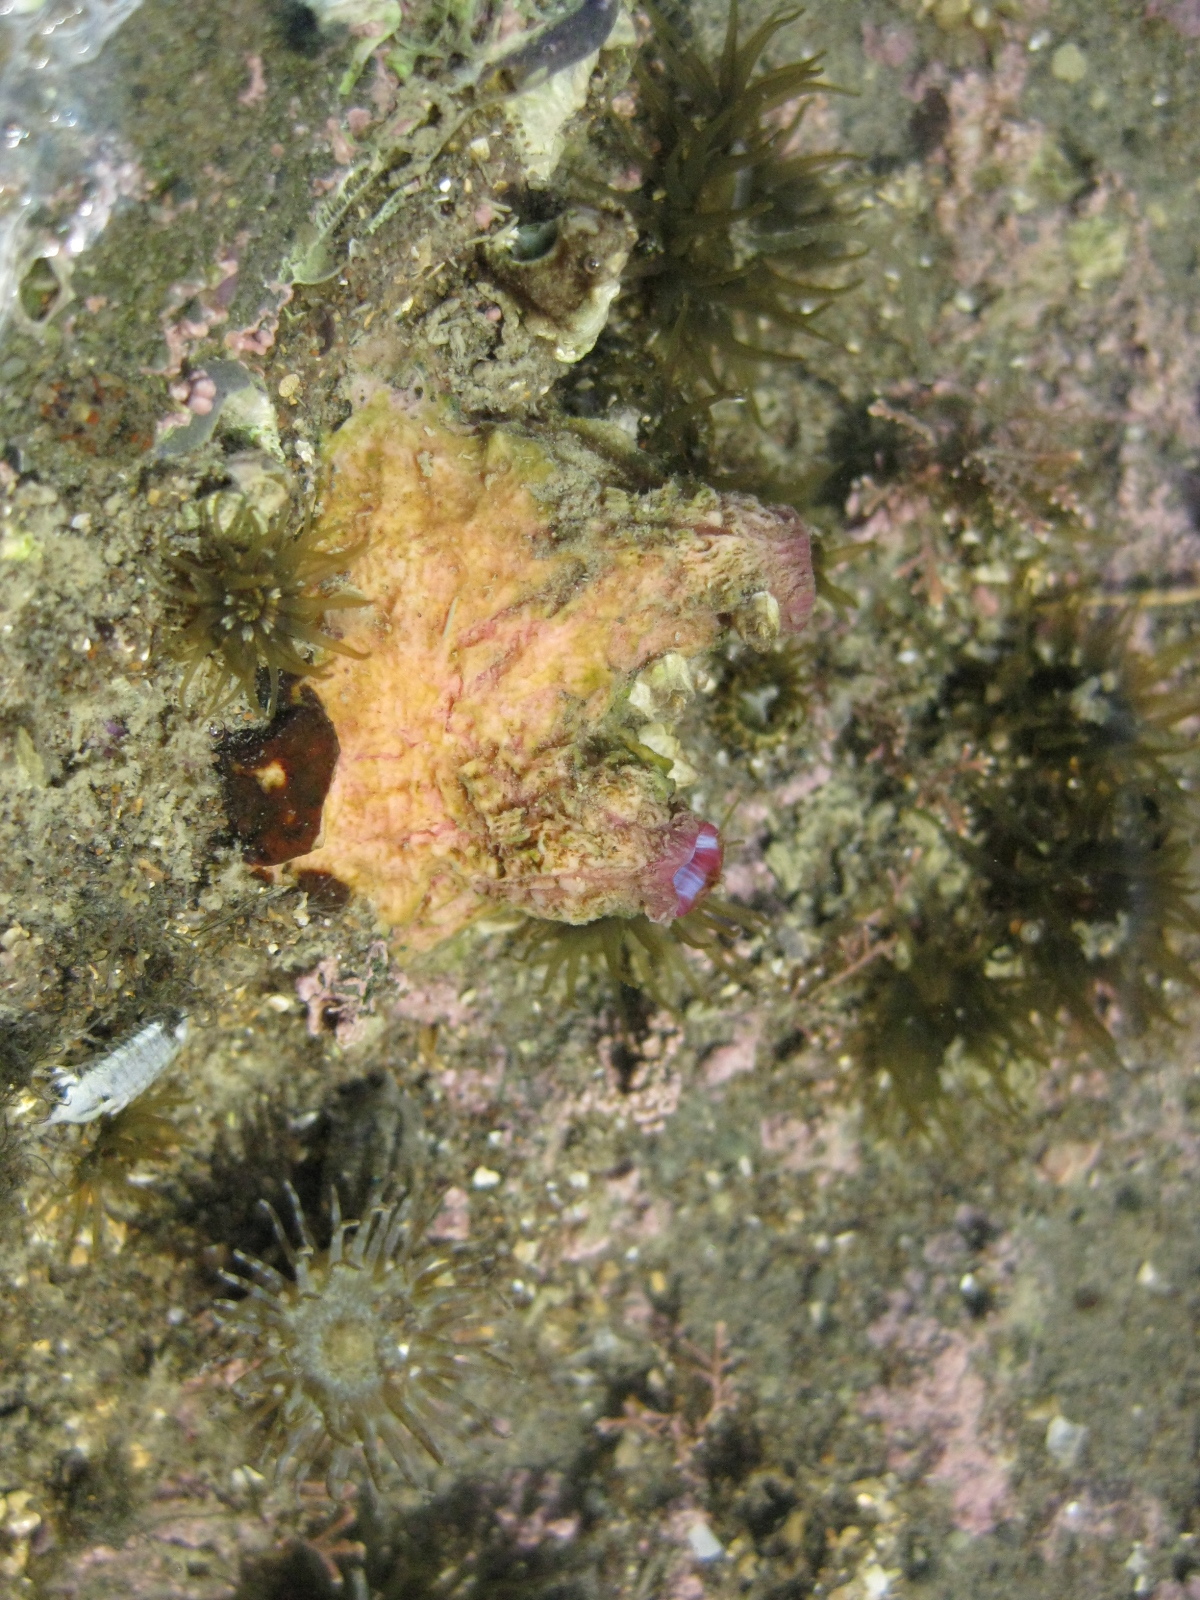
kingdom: Animalia
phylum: Chordata
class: Ascidiacea
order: Stolidobranchia
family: Styelidae
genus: Cnemidocarpa
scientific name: Cnemidocarpa nisiotis
